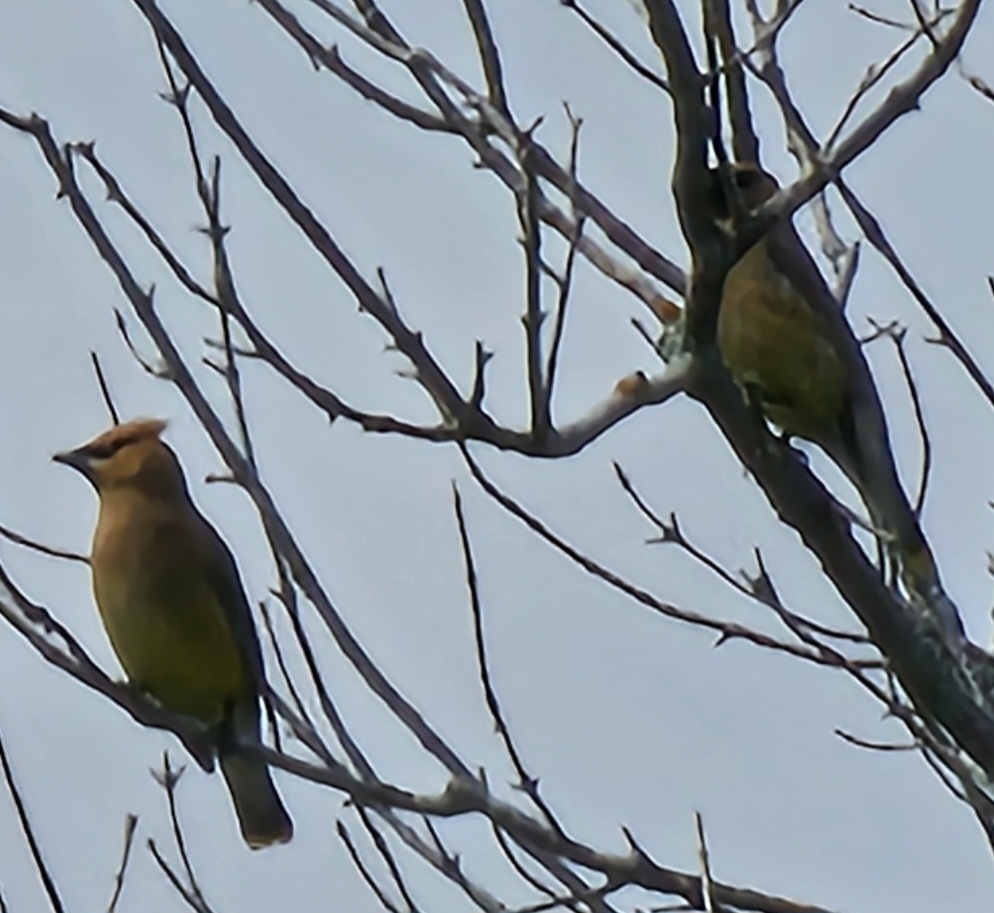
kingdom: Animalia
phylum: Chordata
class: Aves
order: Passeriformes
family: Bombycillidae
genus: Bombycilla
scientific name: Bombycilla cedrorum
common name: Cedar waxwing
